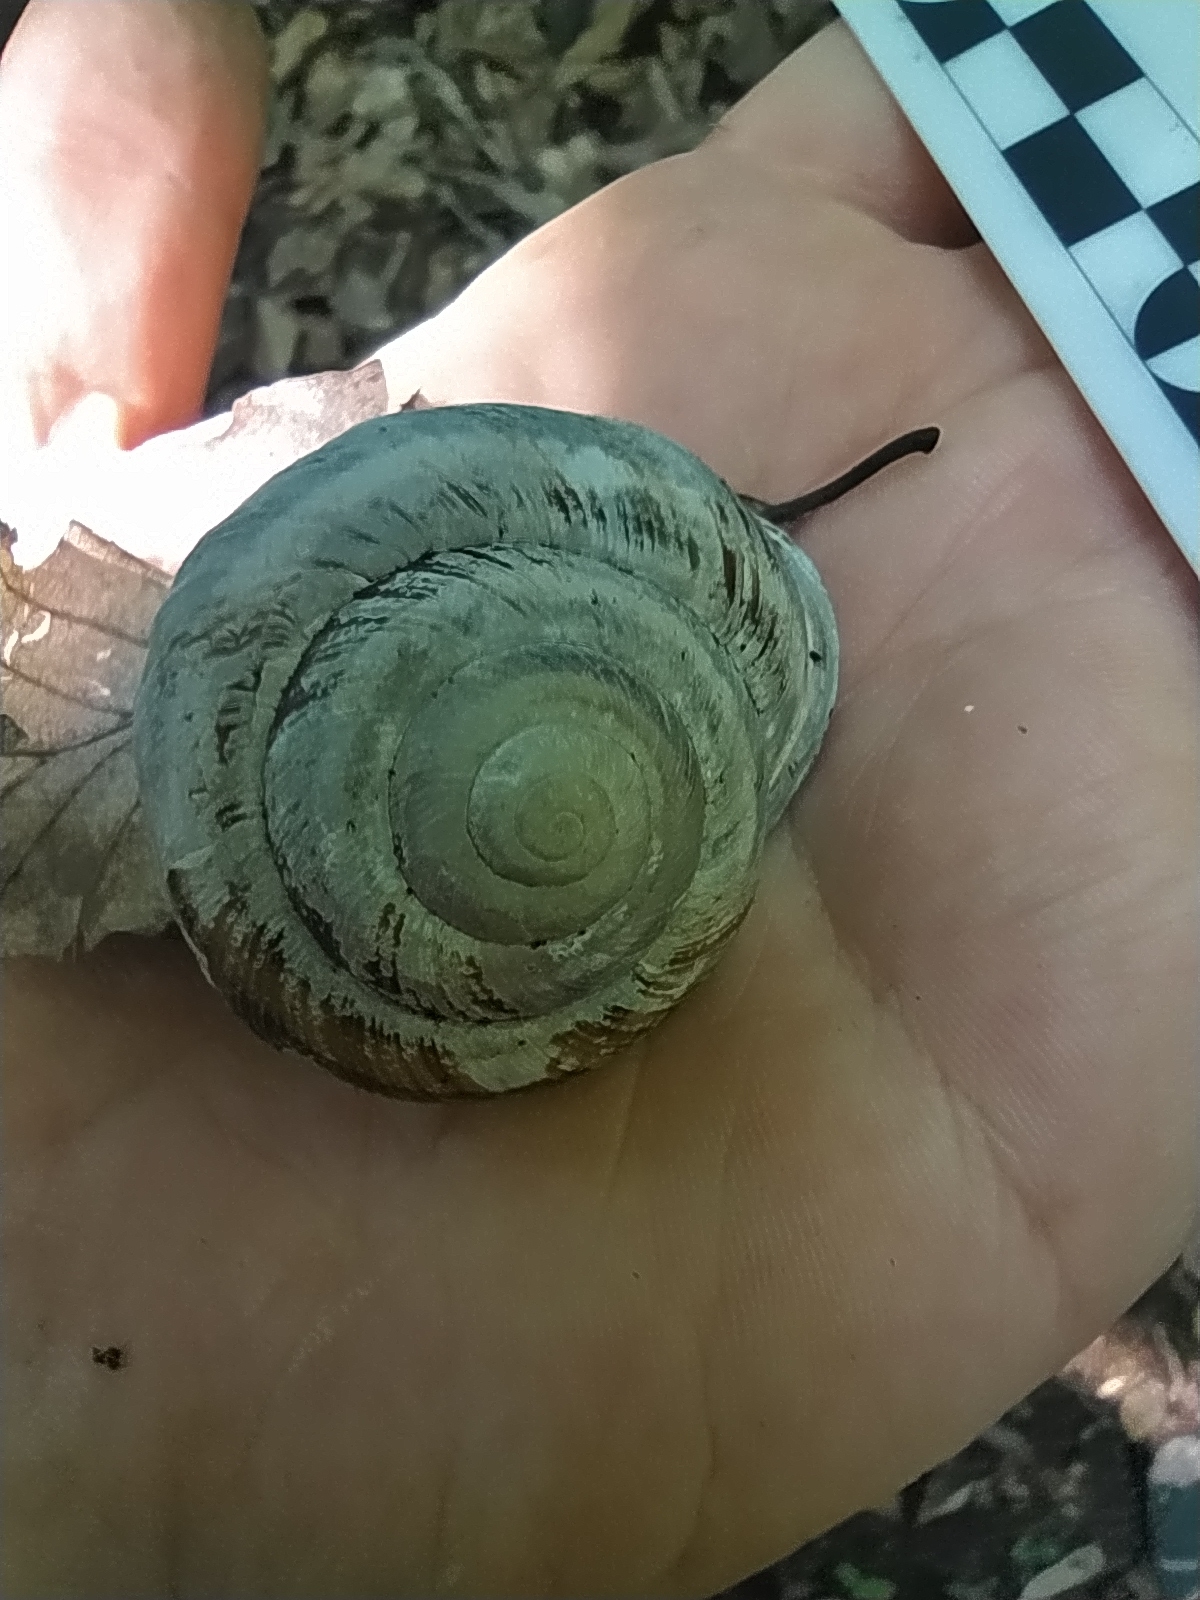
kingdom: Animalia
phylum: Mollusca
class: Gastropoda
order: Stylommatophora
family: Helicidae
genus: Caucasotachea
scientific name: Caucasotachea atrolabiata
